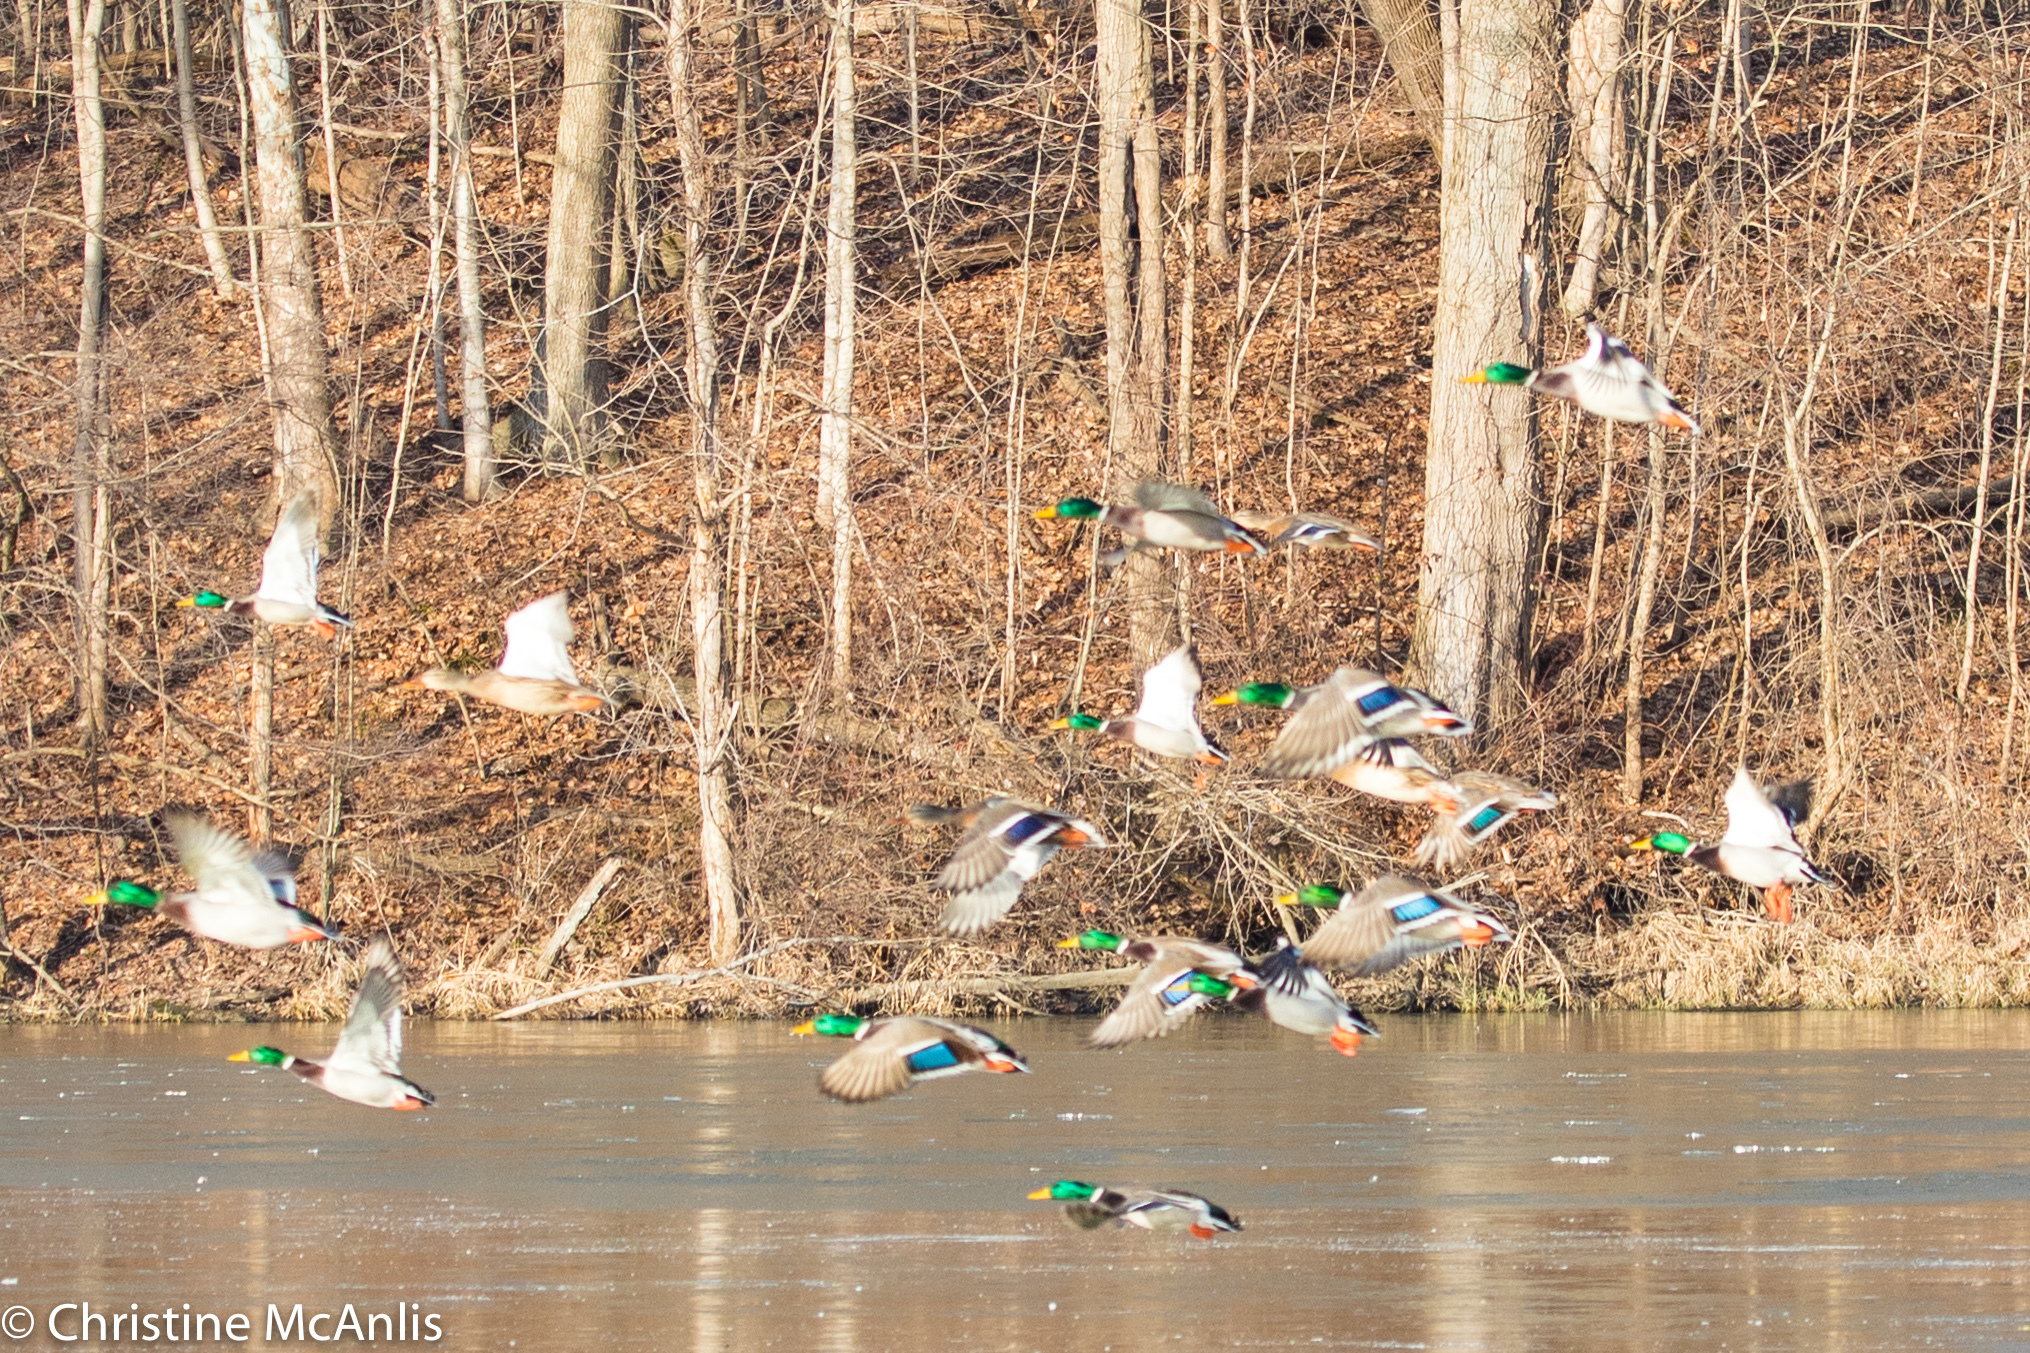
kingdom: Animalia
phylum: Chordata
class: Aves
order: Anseriformes
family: Anatidae
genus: Anas
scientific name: Anas platyrhynchos
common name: Mallard
